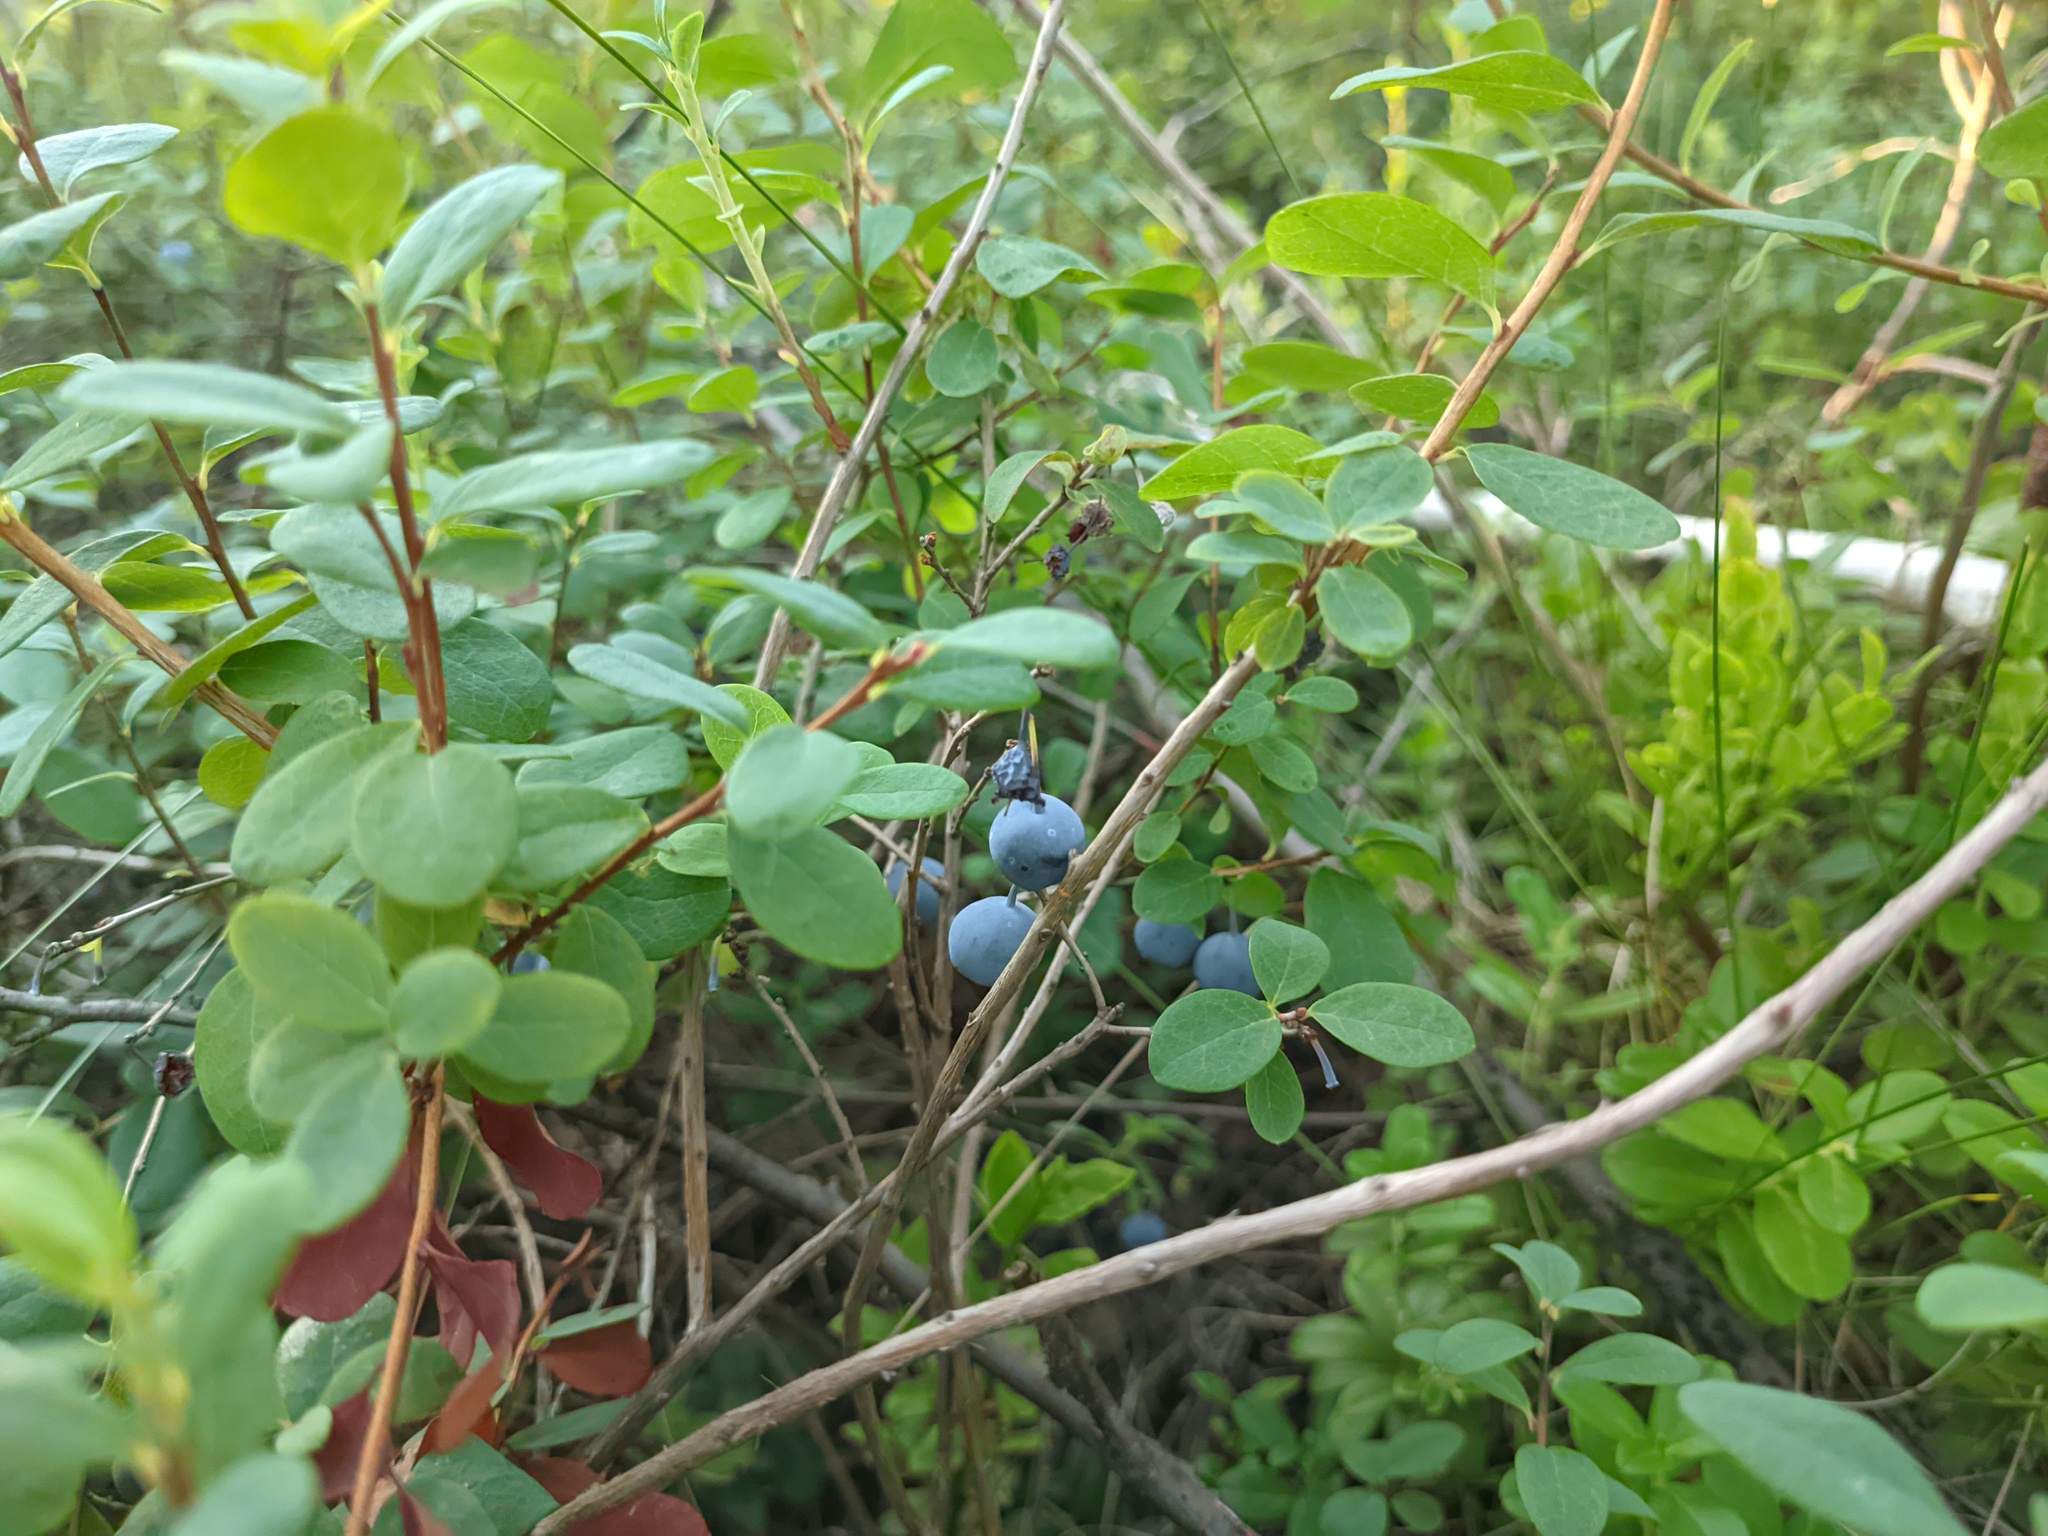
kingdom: Plantae
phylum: Tracheophyta
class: Magnoliopsida
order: Ericales
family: Ericaceae
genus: Vaccinium
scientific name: Vaccinium uliginosum
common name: Bog bilberry
